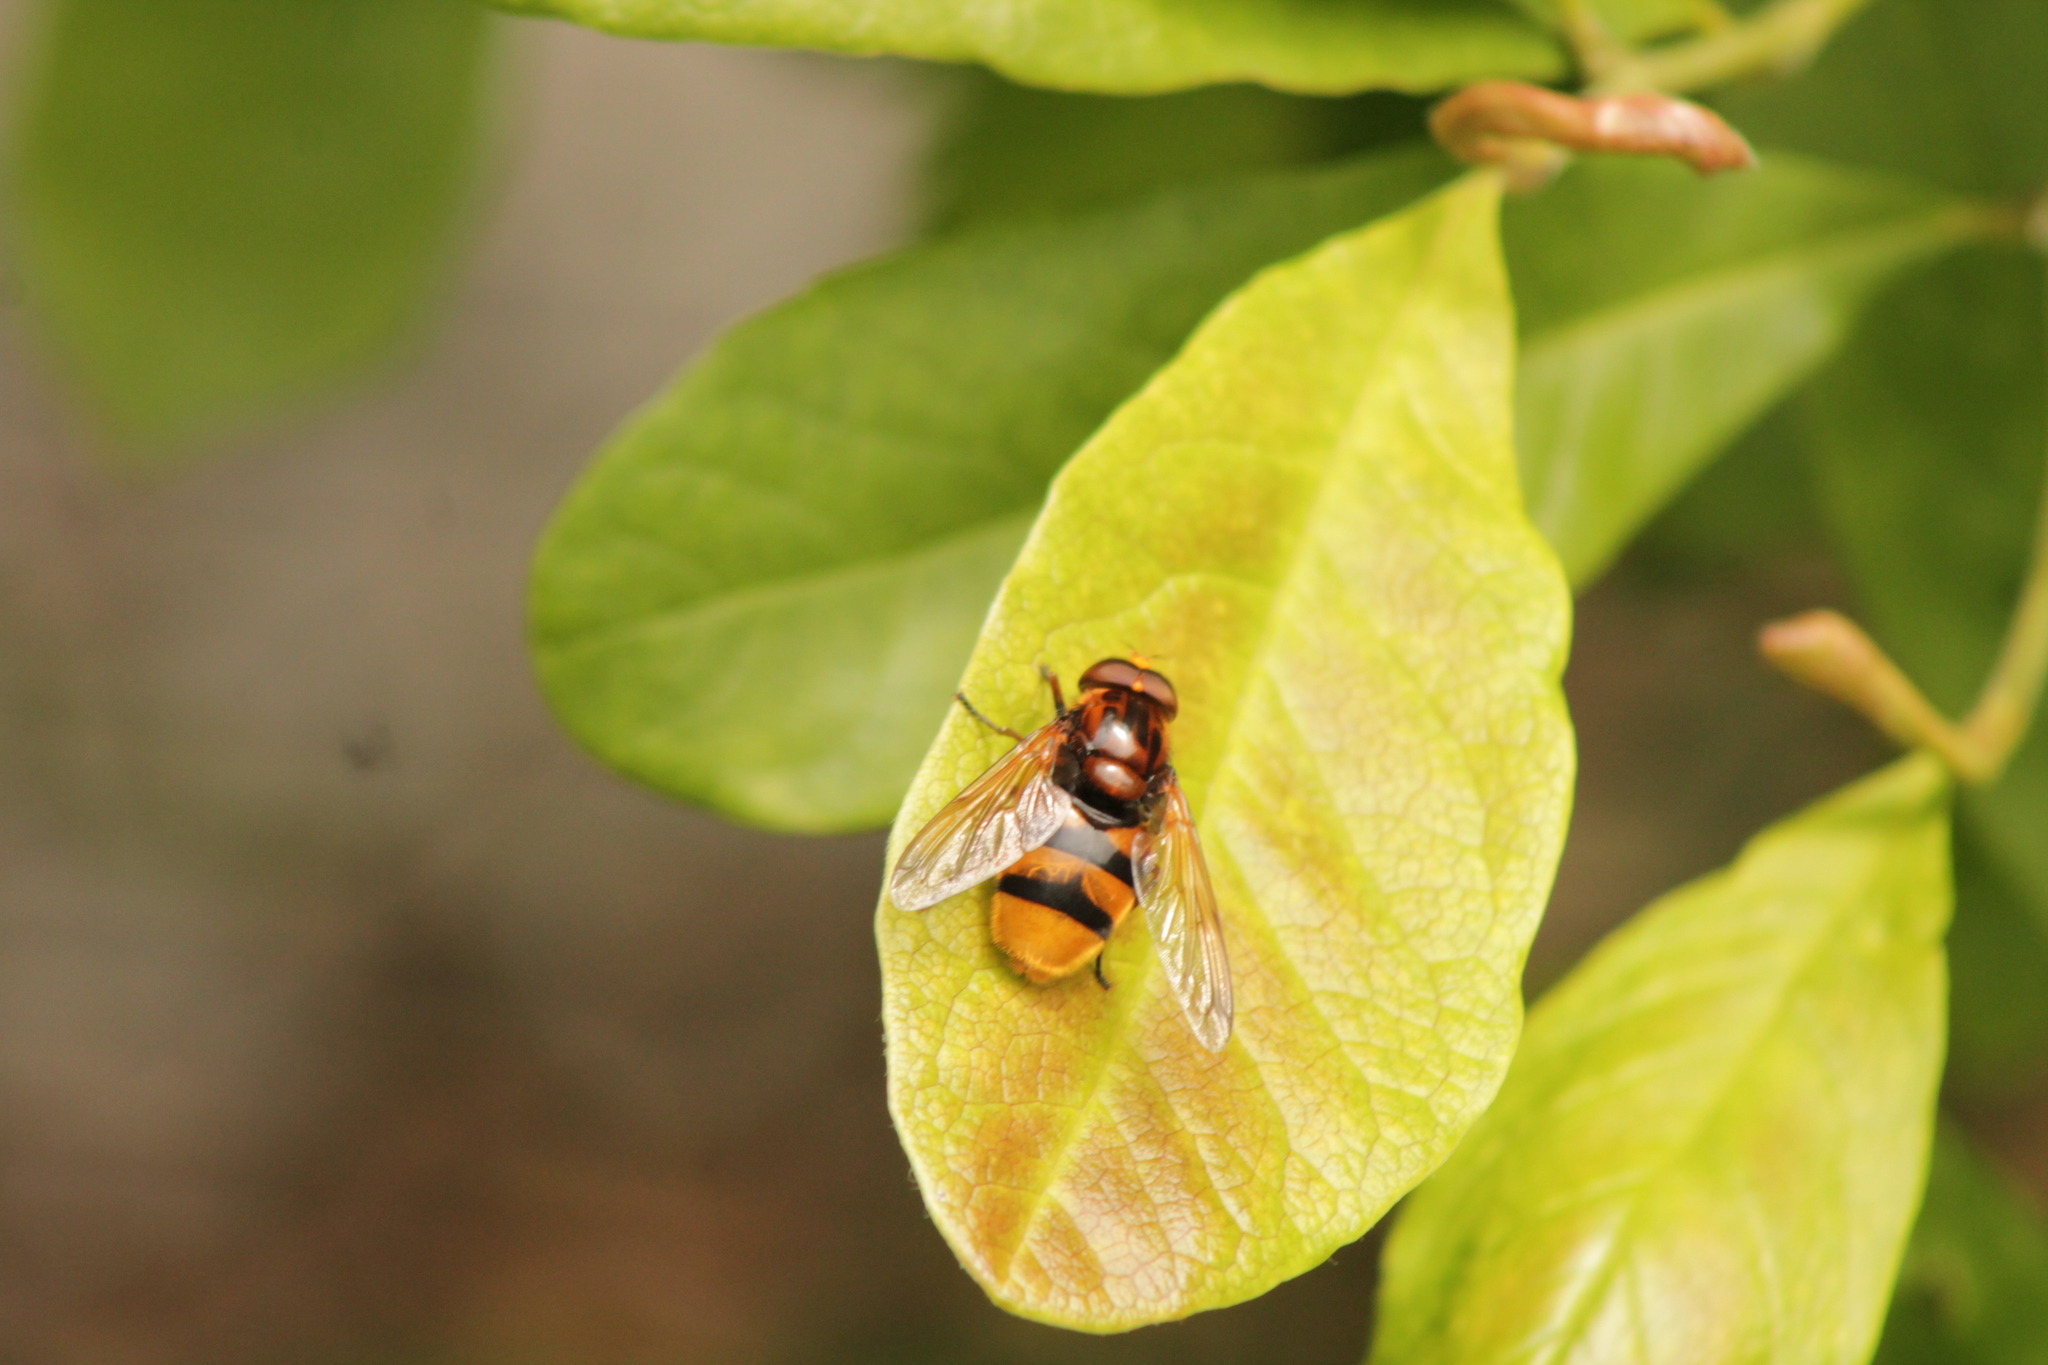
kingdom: Animalia
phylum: Arthropoda
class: Insecta
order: Diptera
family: Syrphidae
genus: Volucella
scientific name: Volucella zonaria
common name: Hornet hoverfly
